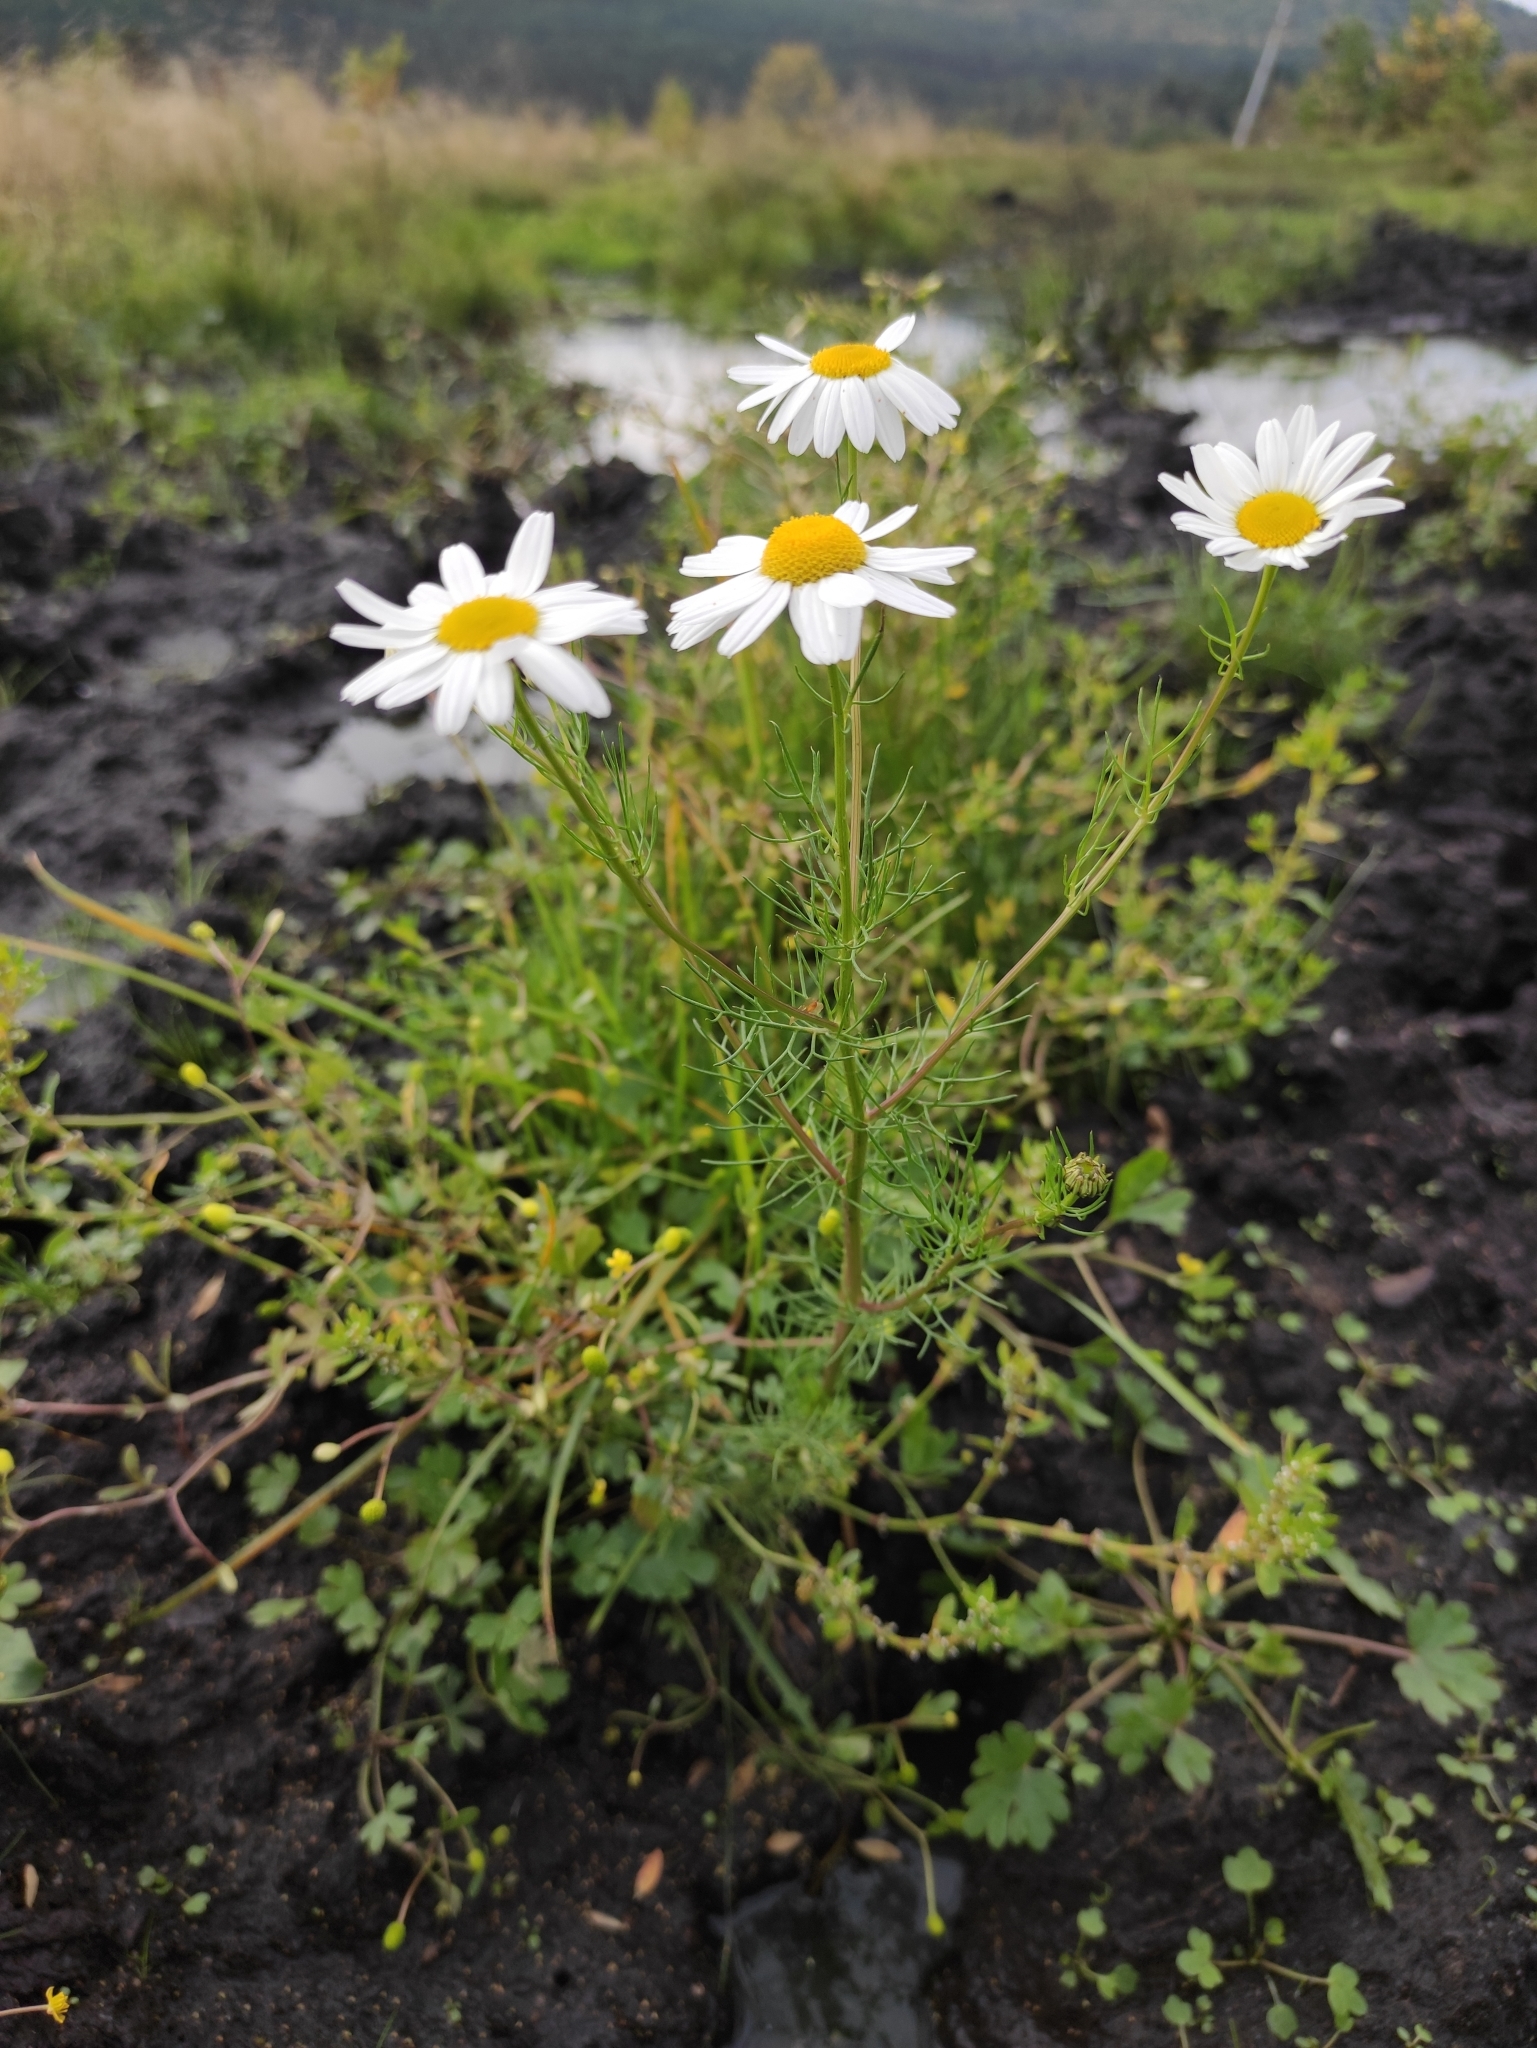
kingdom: Plantae
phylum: Tracheophyta
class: Magnoliopsida
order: Asterales
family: Asteraceae
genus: Tripleurospermum
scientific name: Tripleurospermum inodorum
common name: Scentless mayweed
